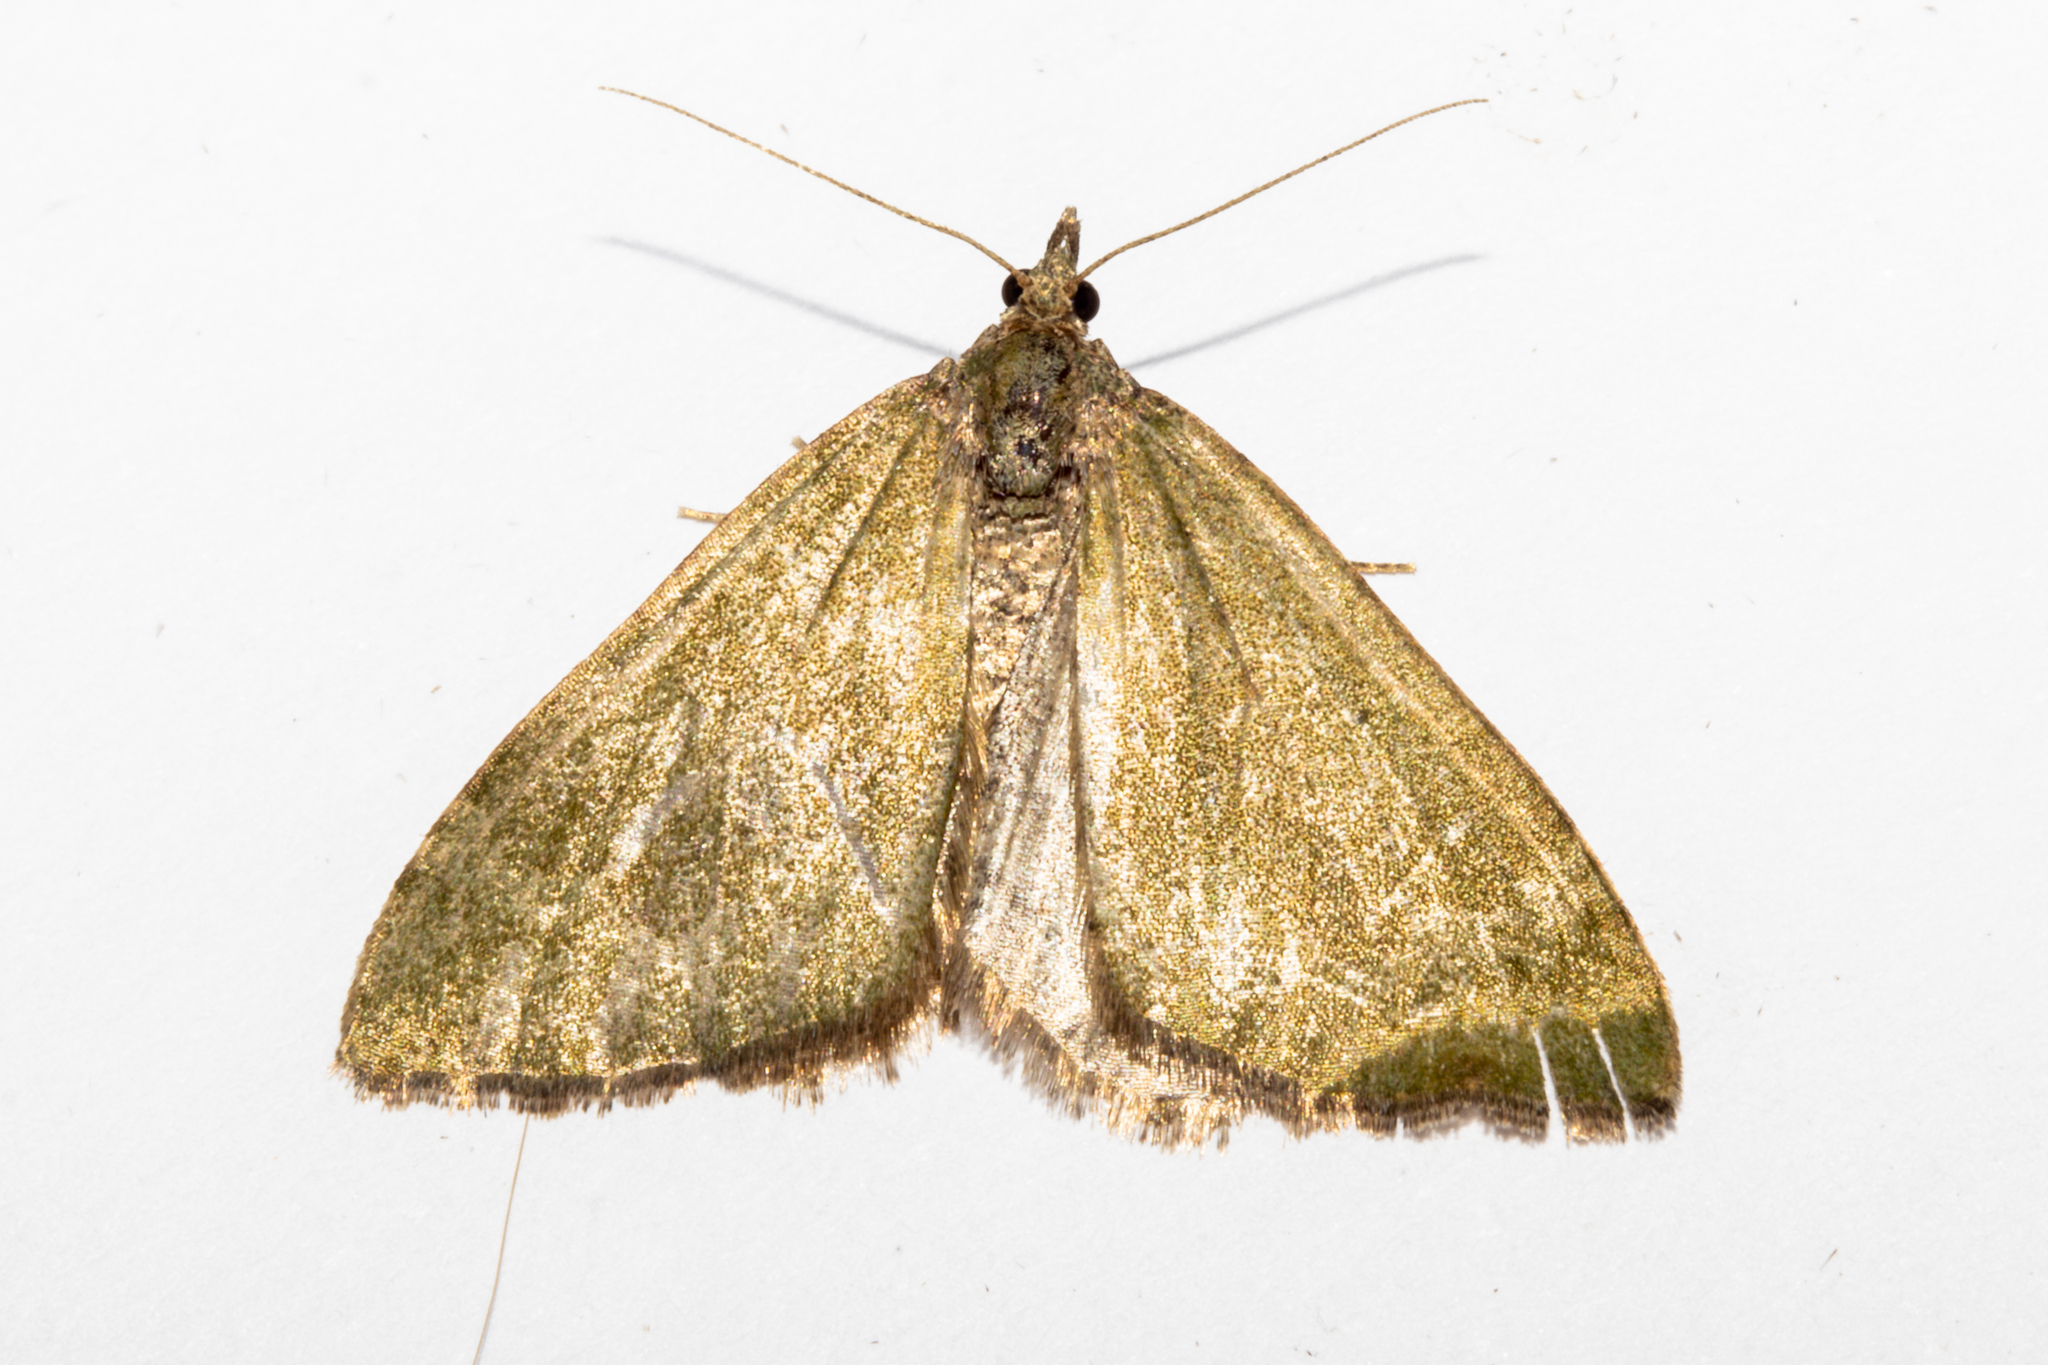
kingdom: Animalia
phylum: Arthropoda
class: Insecta
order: Lepidoptera
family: Geometridae
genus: Epyaxa
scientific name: Epyaxa rosearia
